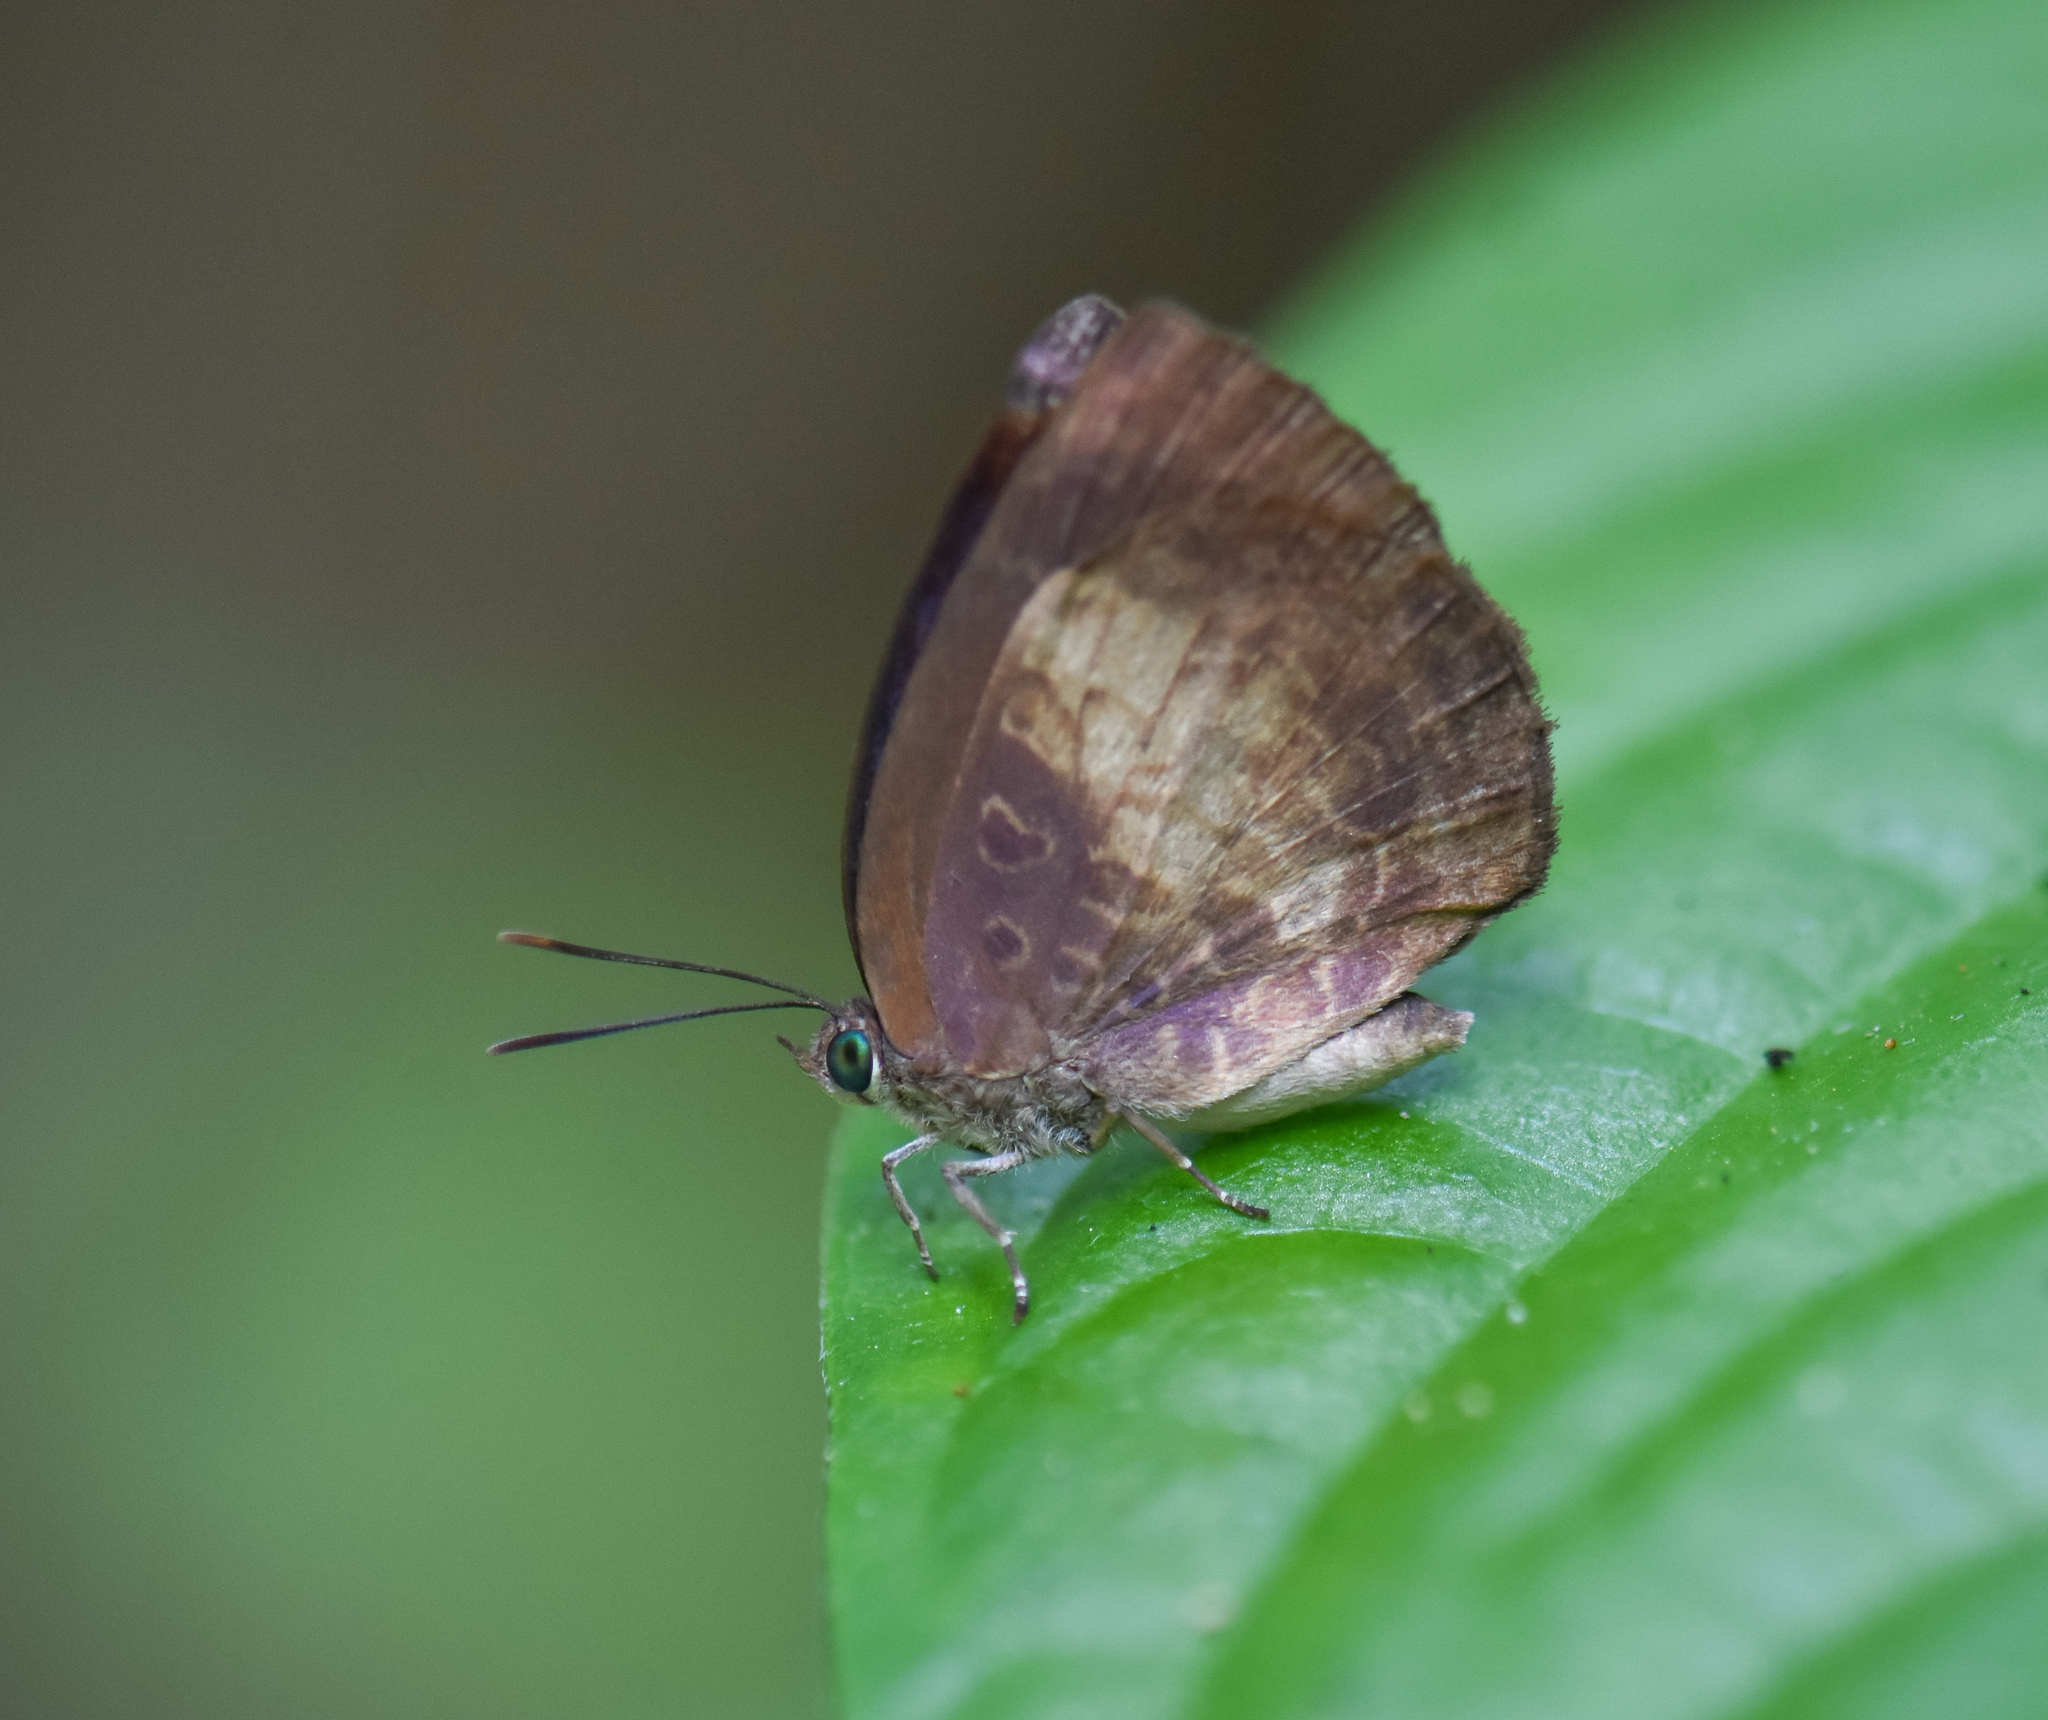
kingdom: Animalia
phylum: Arthropoda
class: Insecta
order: Lepidoptera
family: Lycaenidae
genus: Arhopala
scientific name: Arhopala perimuta
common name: Yellowdisc oakblue
